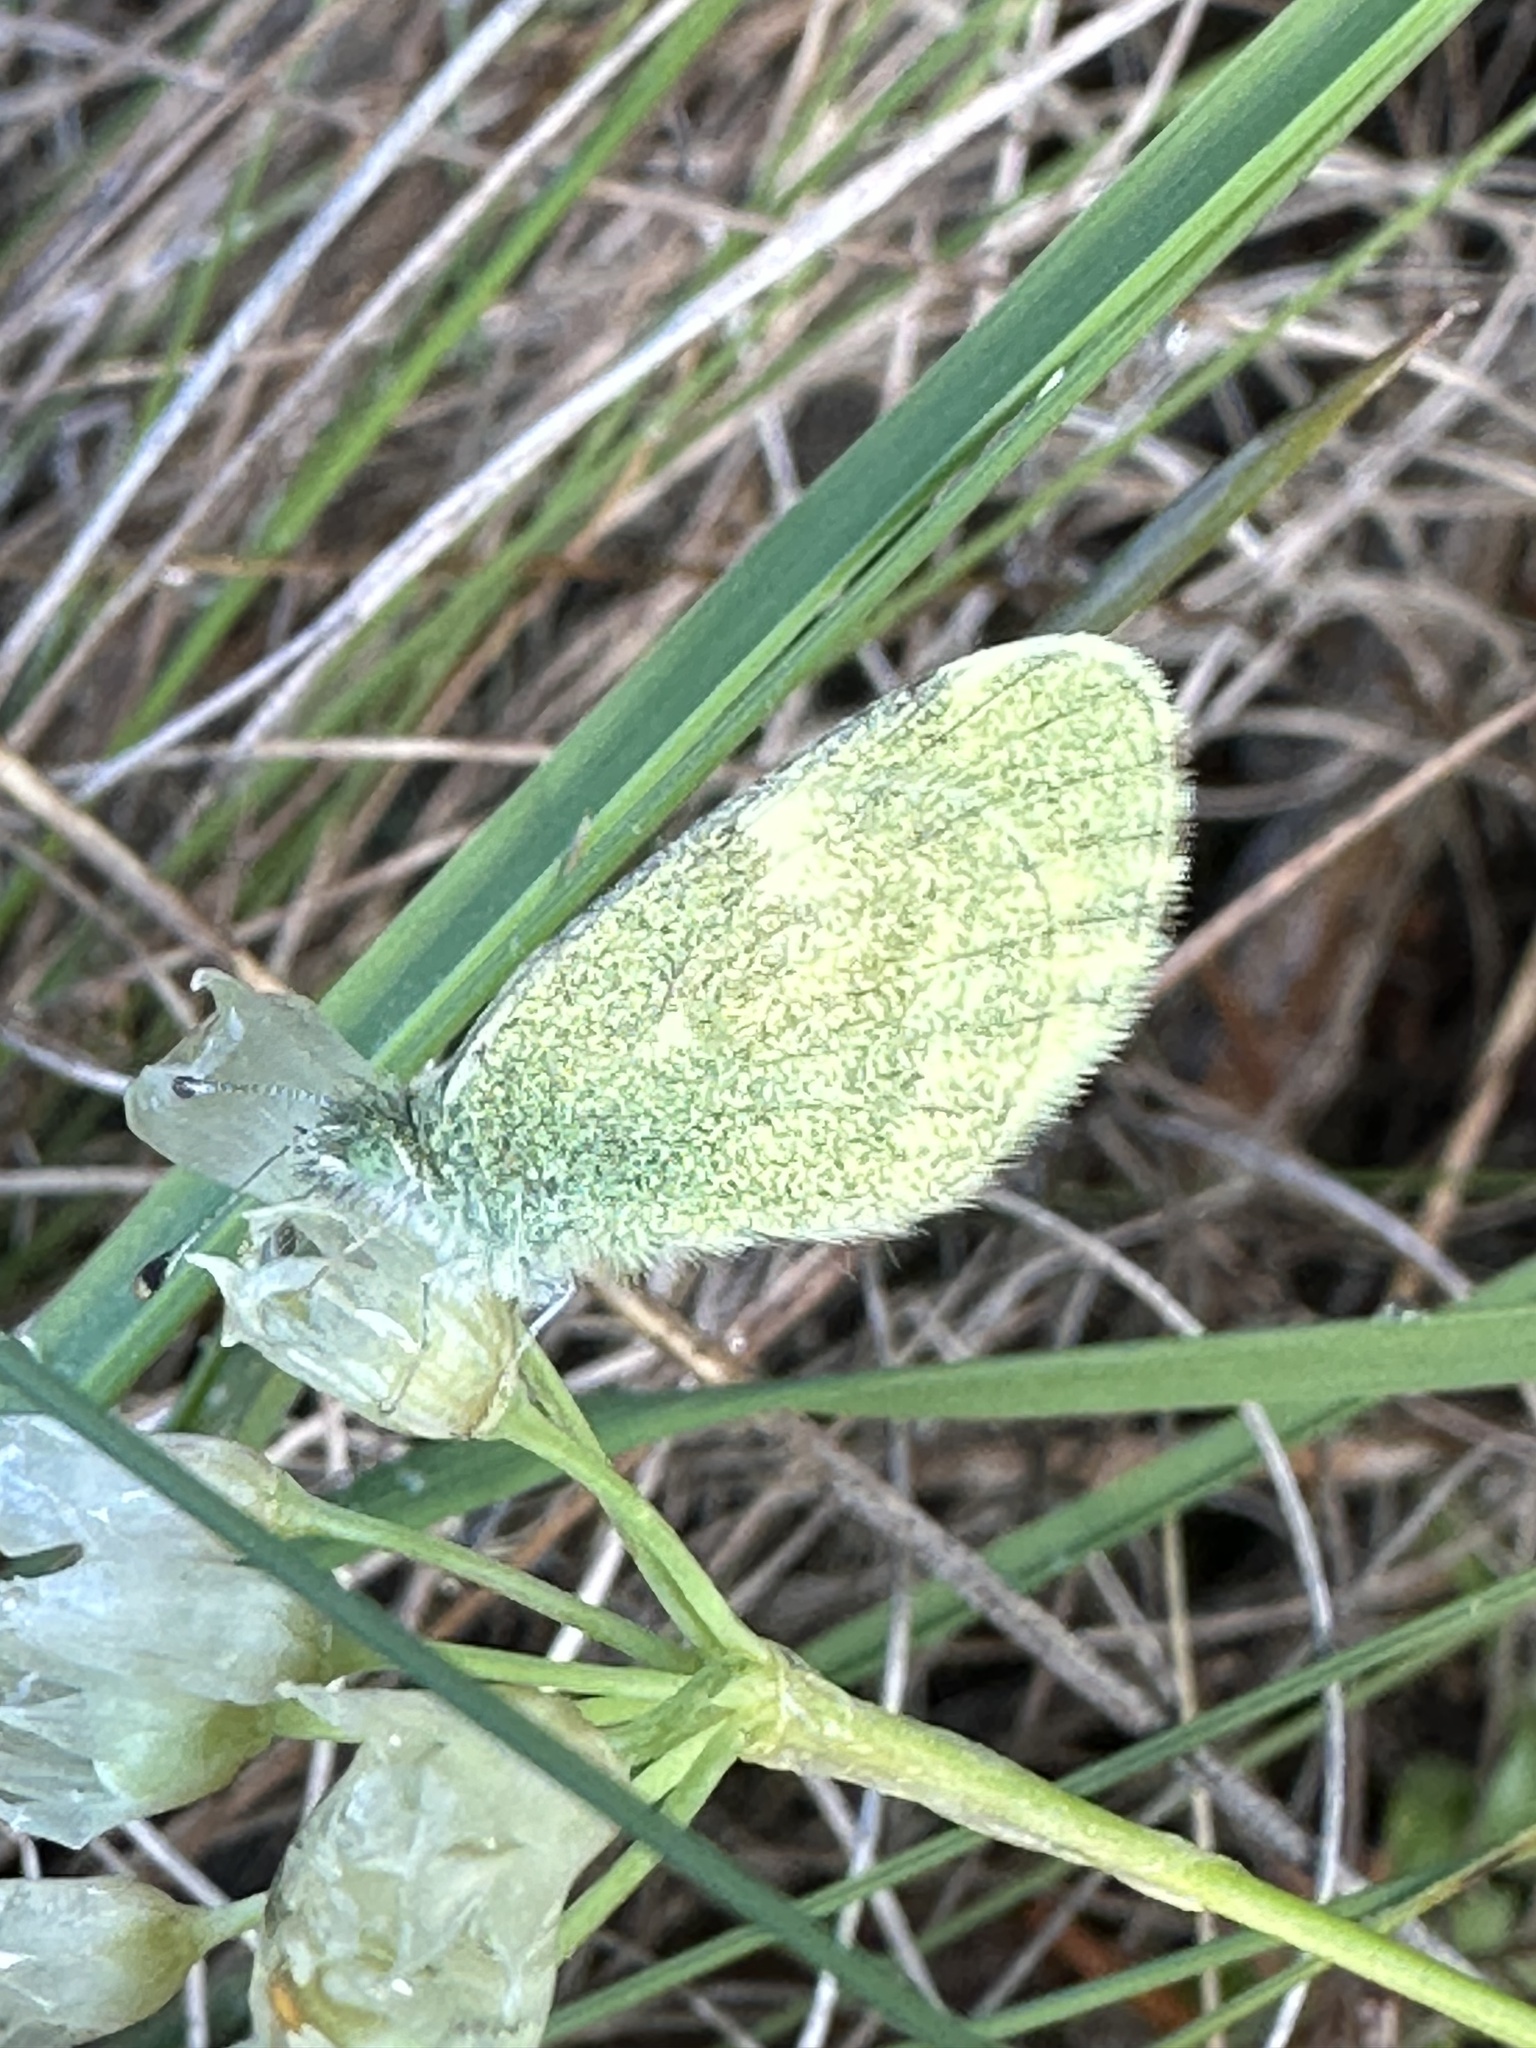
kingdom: Animalia
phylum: Arthropoda
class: Insecta
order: Lepidoptera
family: Pieridae
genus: Nathalis
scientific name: Nathalis iole
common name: Dainty sulphur
